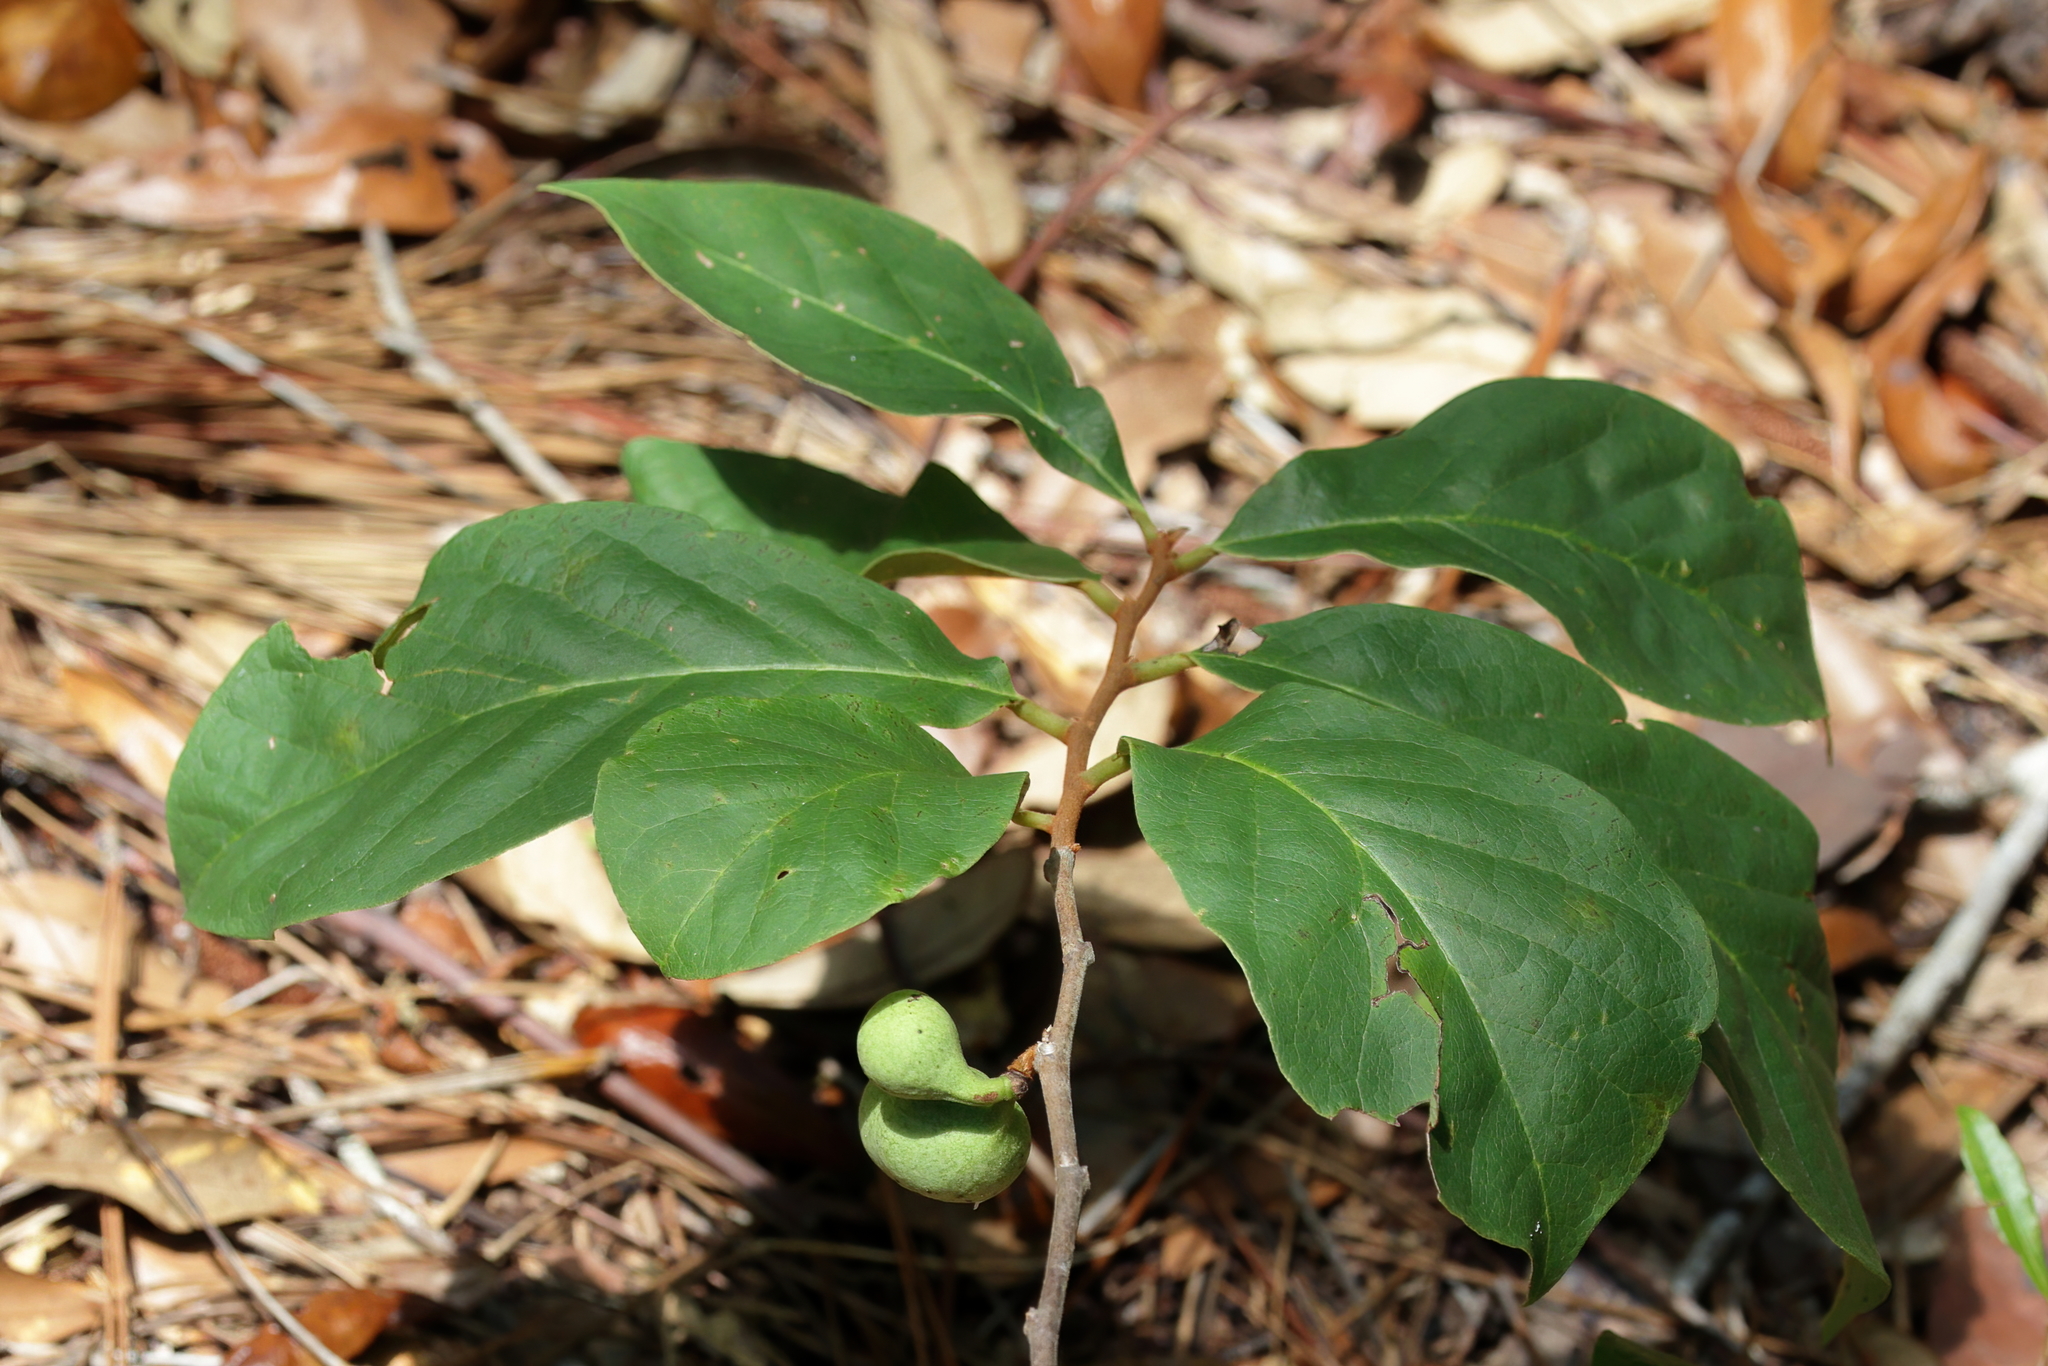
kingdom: Plantae
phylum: Tracheophyta
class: Magnoliopsida
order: Magnoliales
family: Annonaceae
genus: Asimina
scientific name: Asimina parviflora
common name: Dwarf pawpaw
